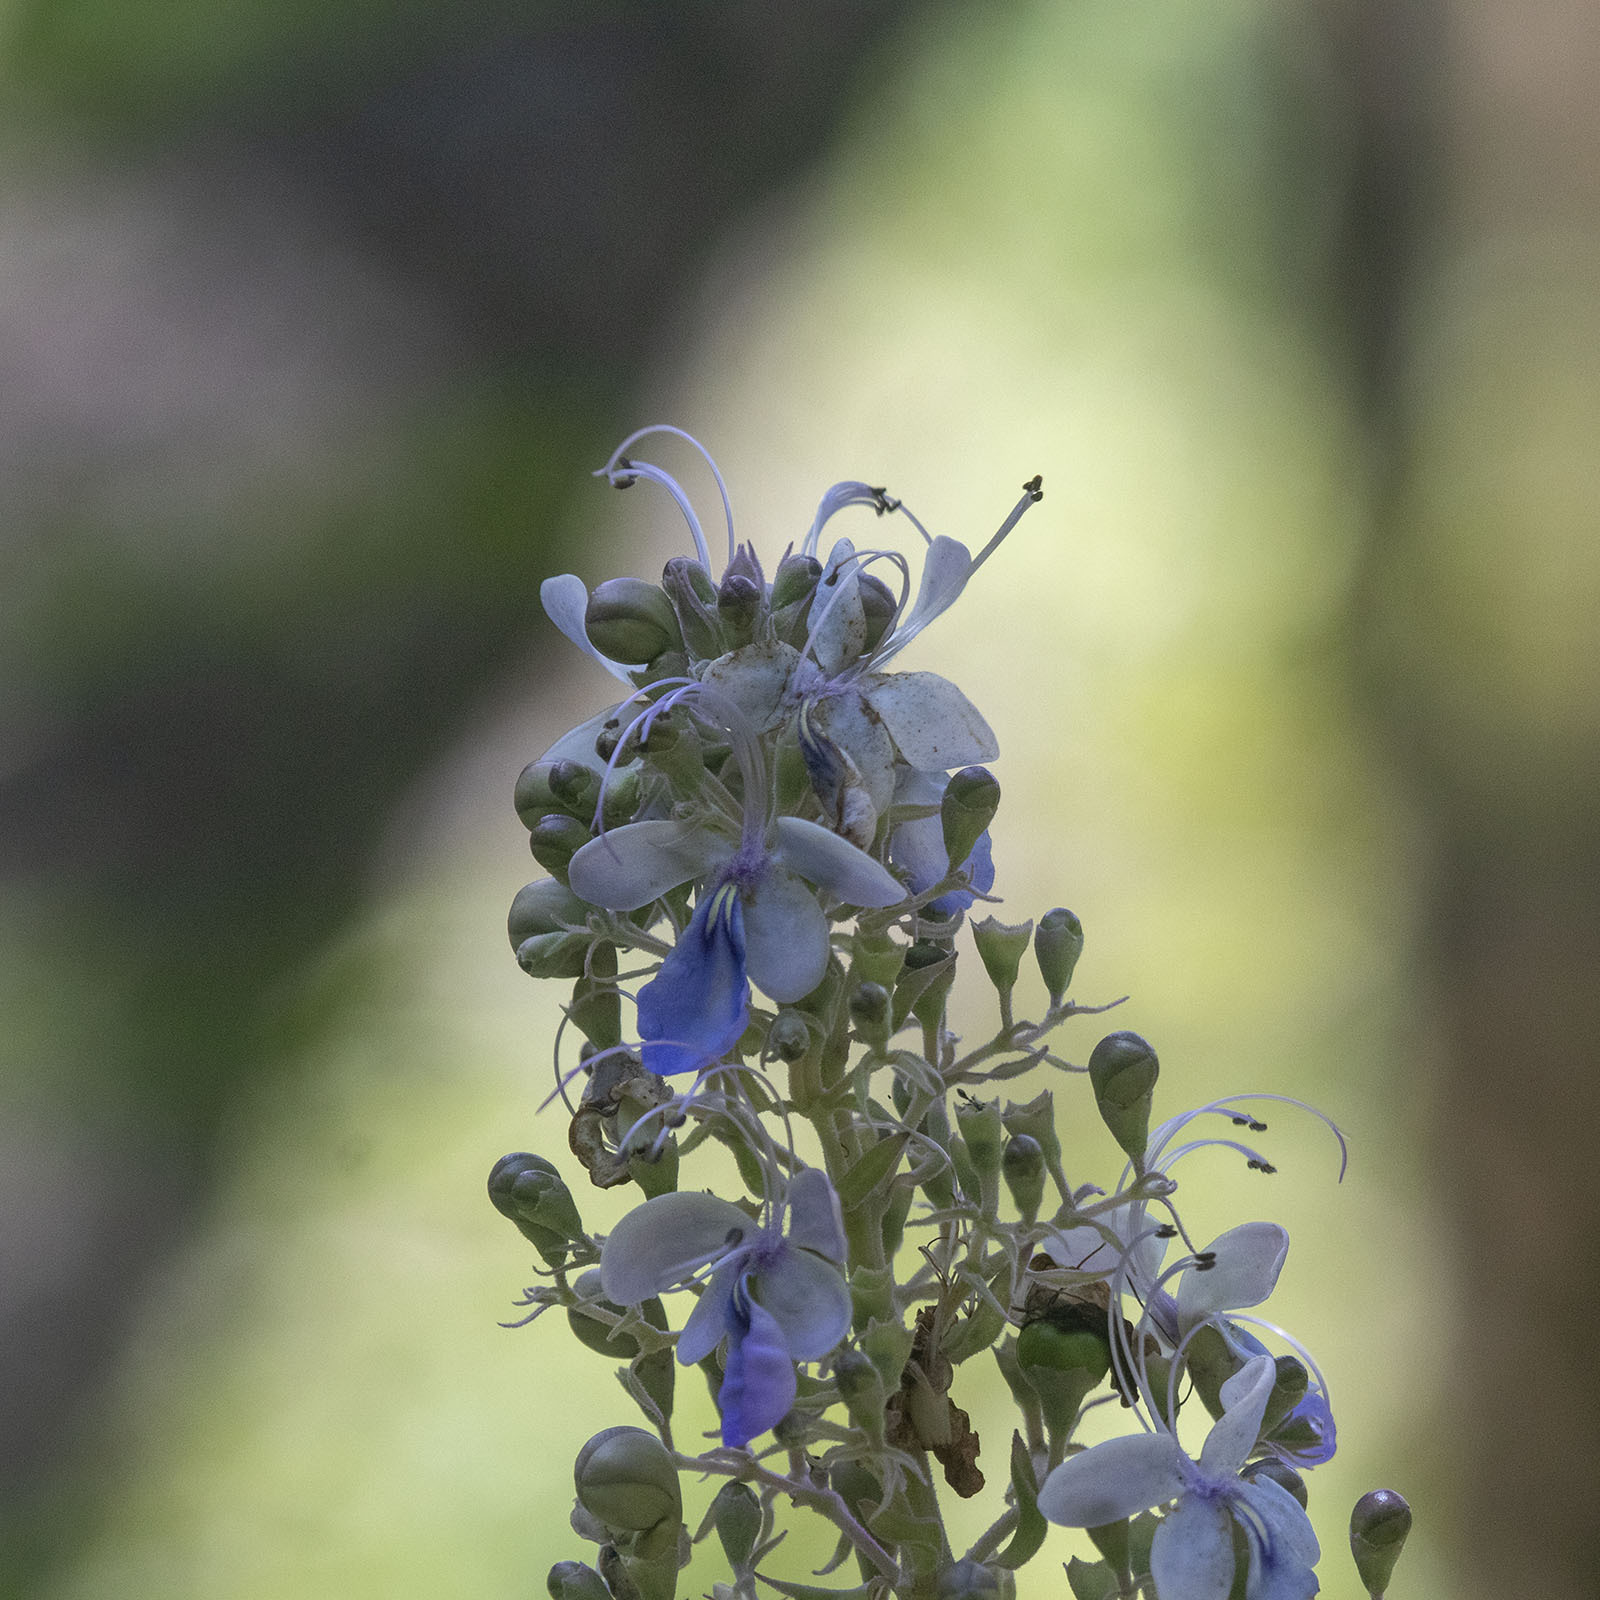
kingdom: Plantae
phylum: Tracheophyta
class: Magnoliopsida
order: Lamiales
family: Lamiaceae
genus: Rotheca
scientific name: Rotheca serrata
